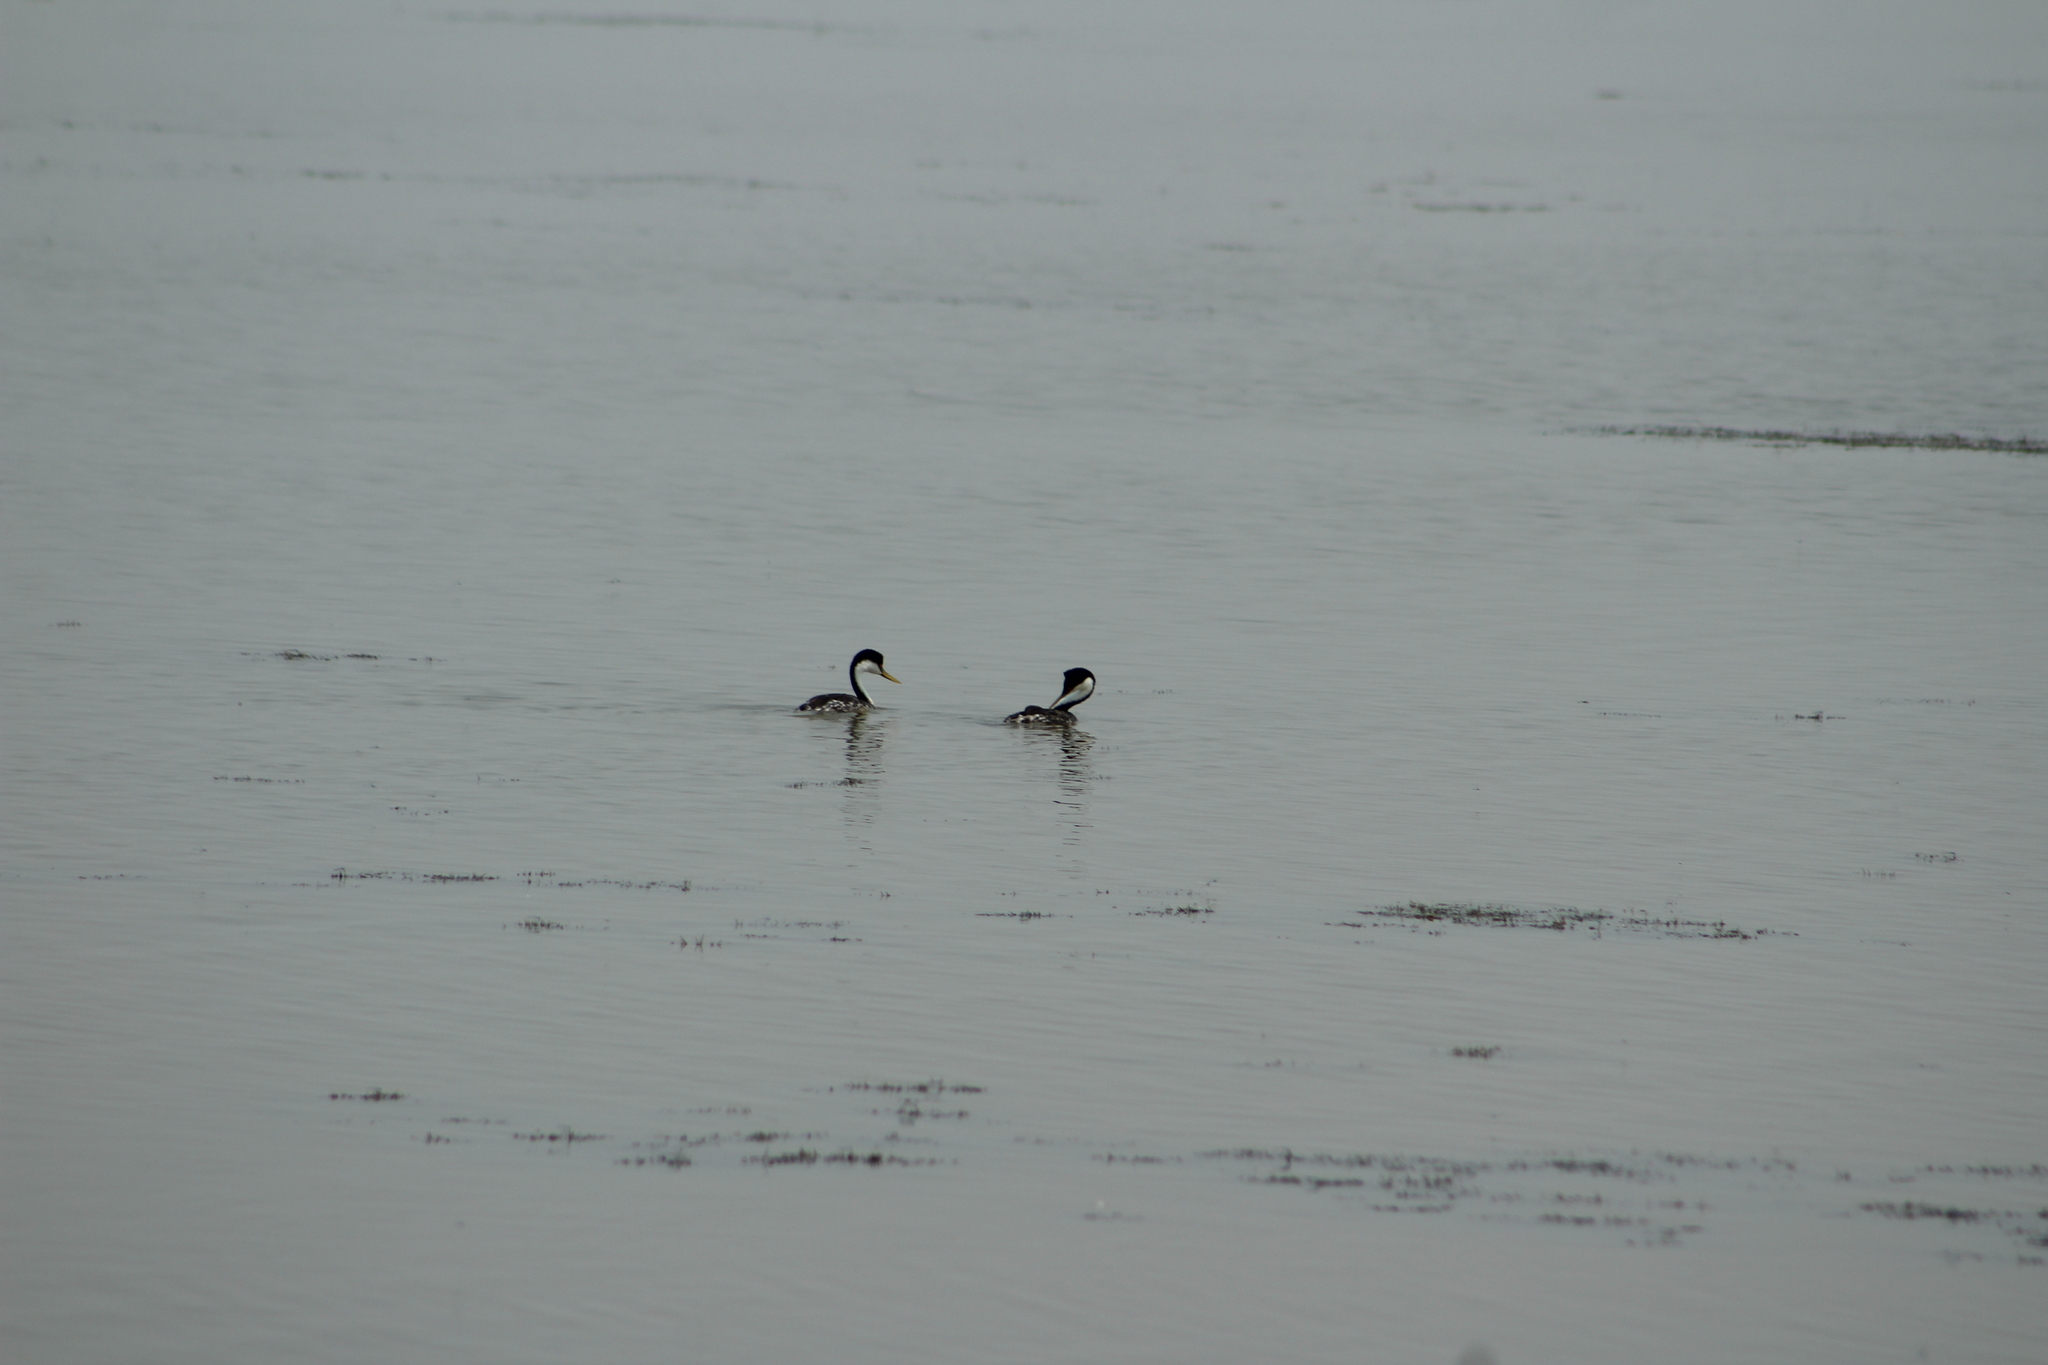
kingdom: Animalia
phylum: Chordata
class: Aves
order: Podicipediformes
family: Podicipedidae
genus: Aechmophorus
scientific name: Aechmophorus occidentalis
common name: Western grebe
